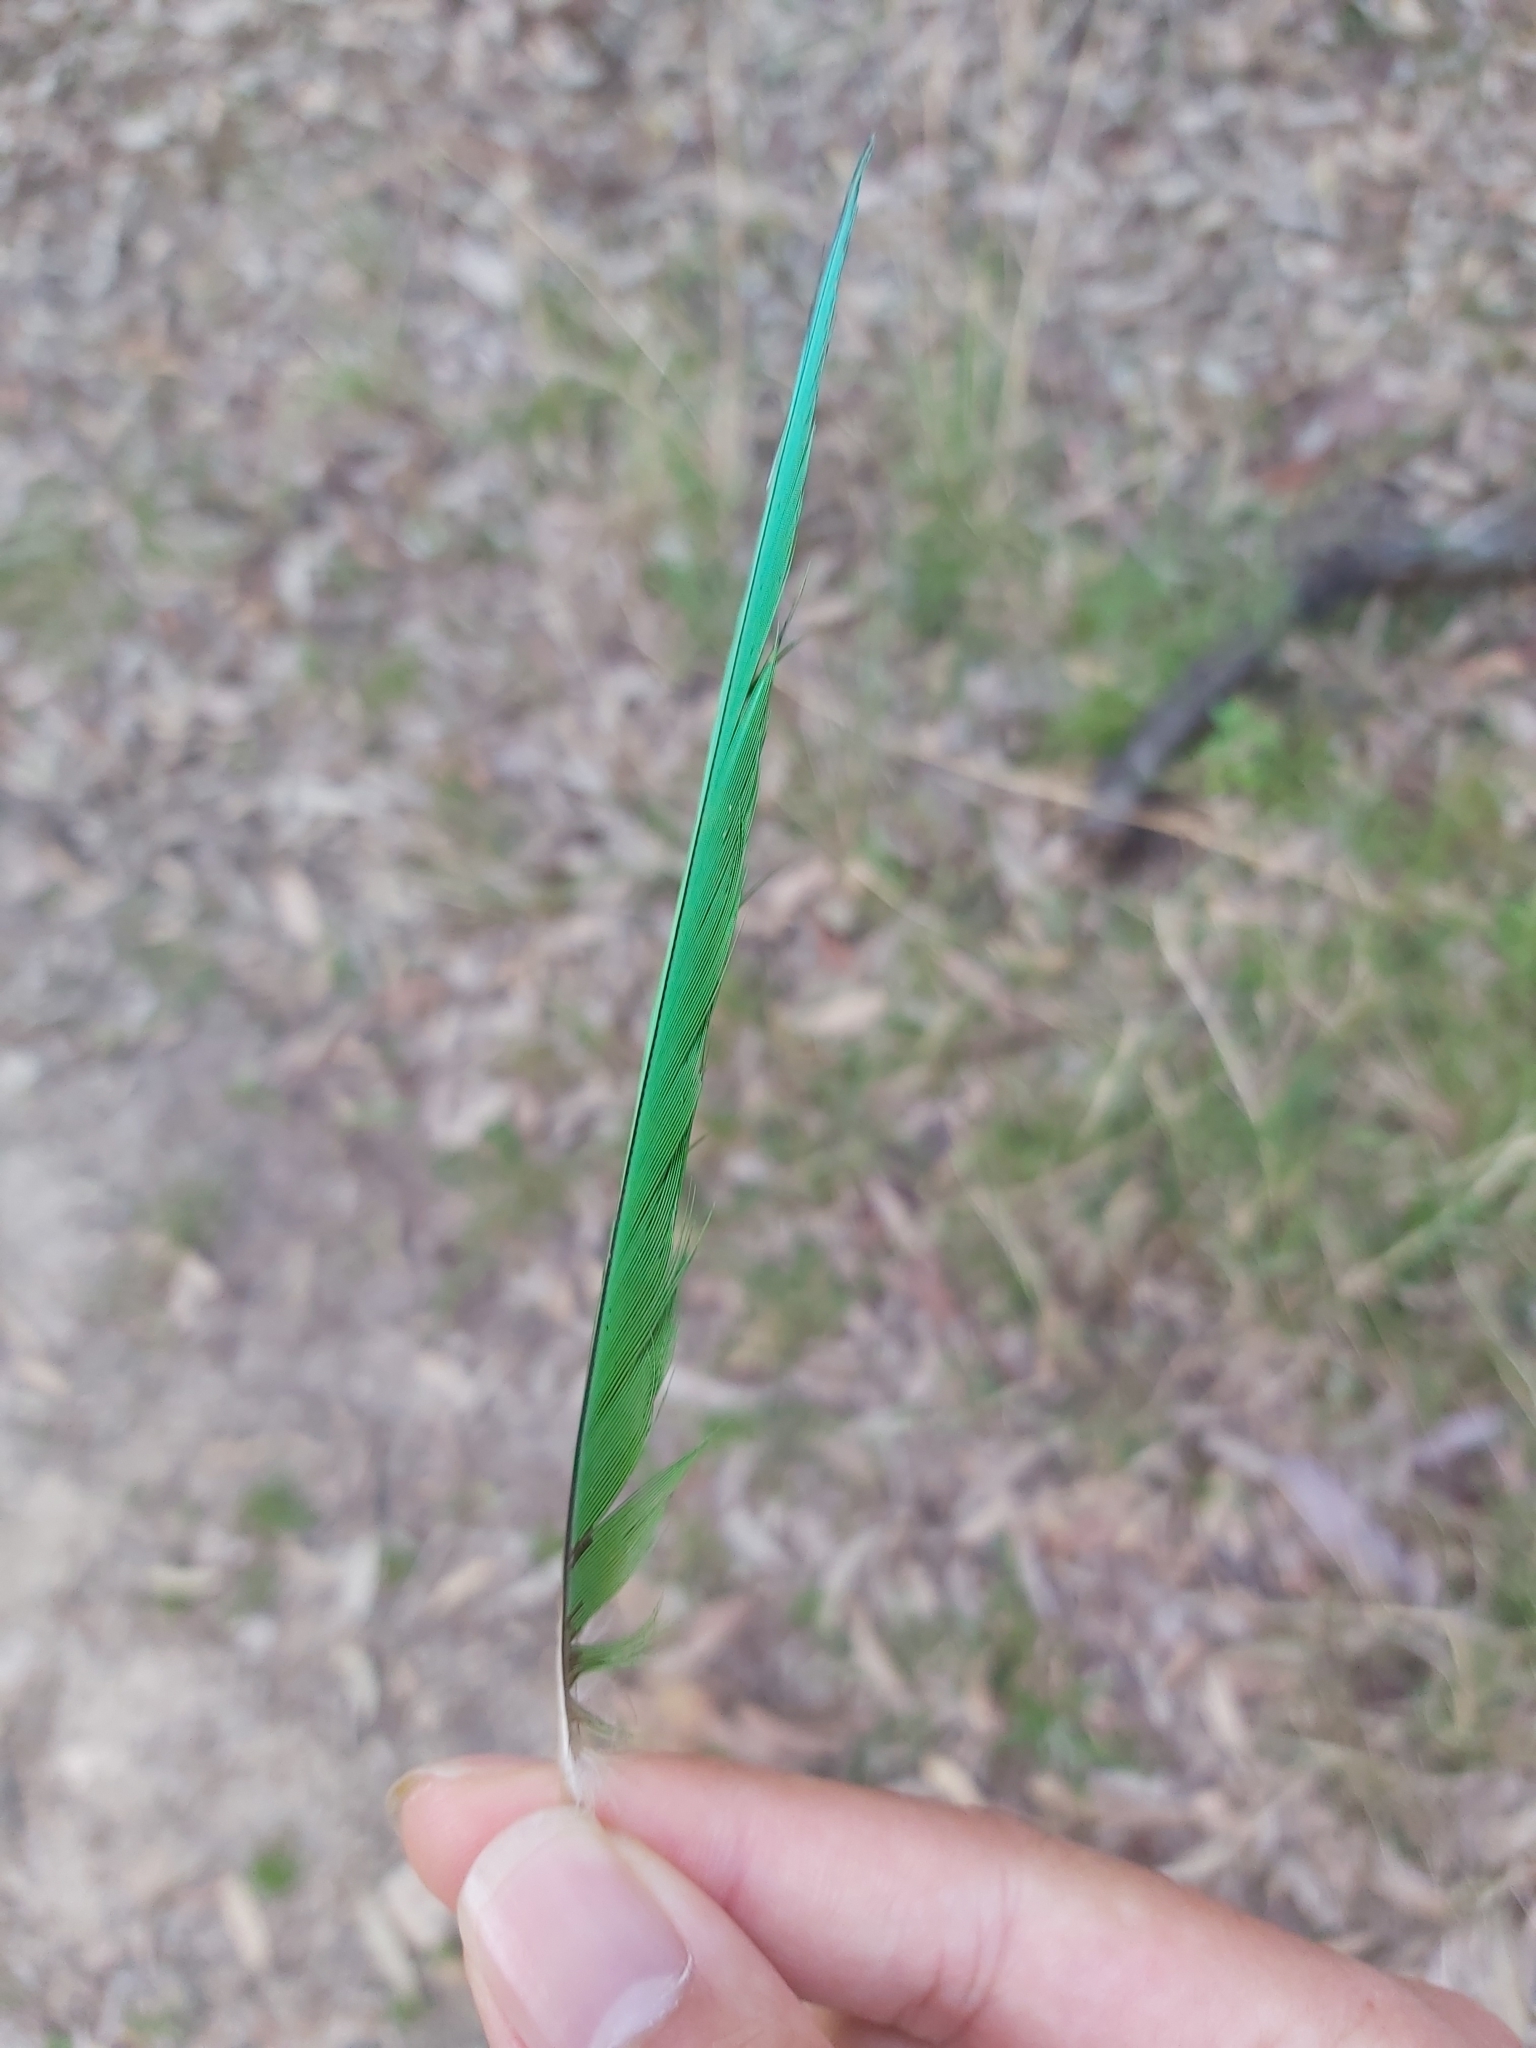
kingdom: Animalia
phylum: Chordata
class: Aves
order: Psittaciformes
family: Psittacidae
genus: Trichoglossus
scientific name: Trichoglossus haematodus
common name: Coconut lorikeet
